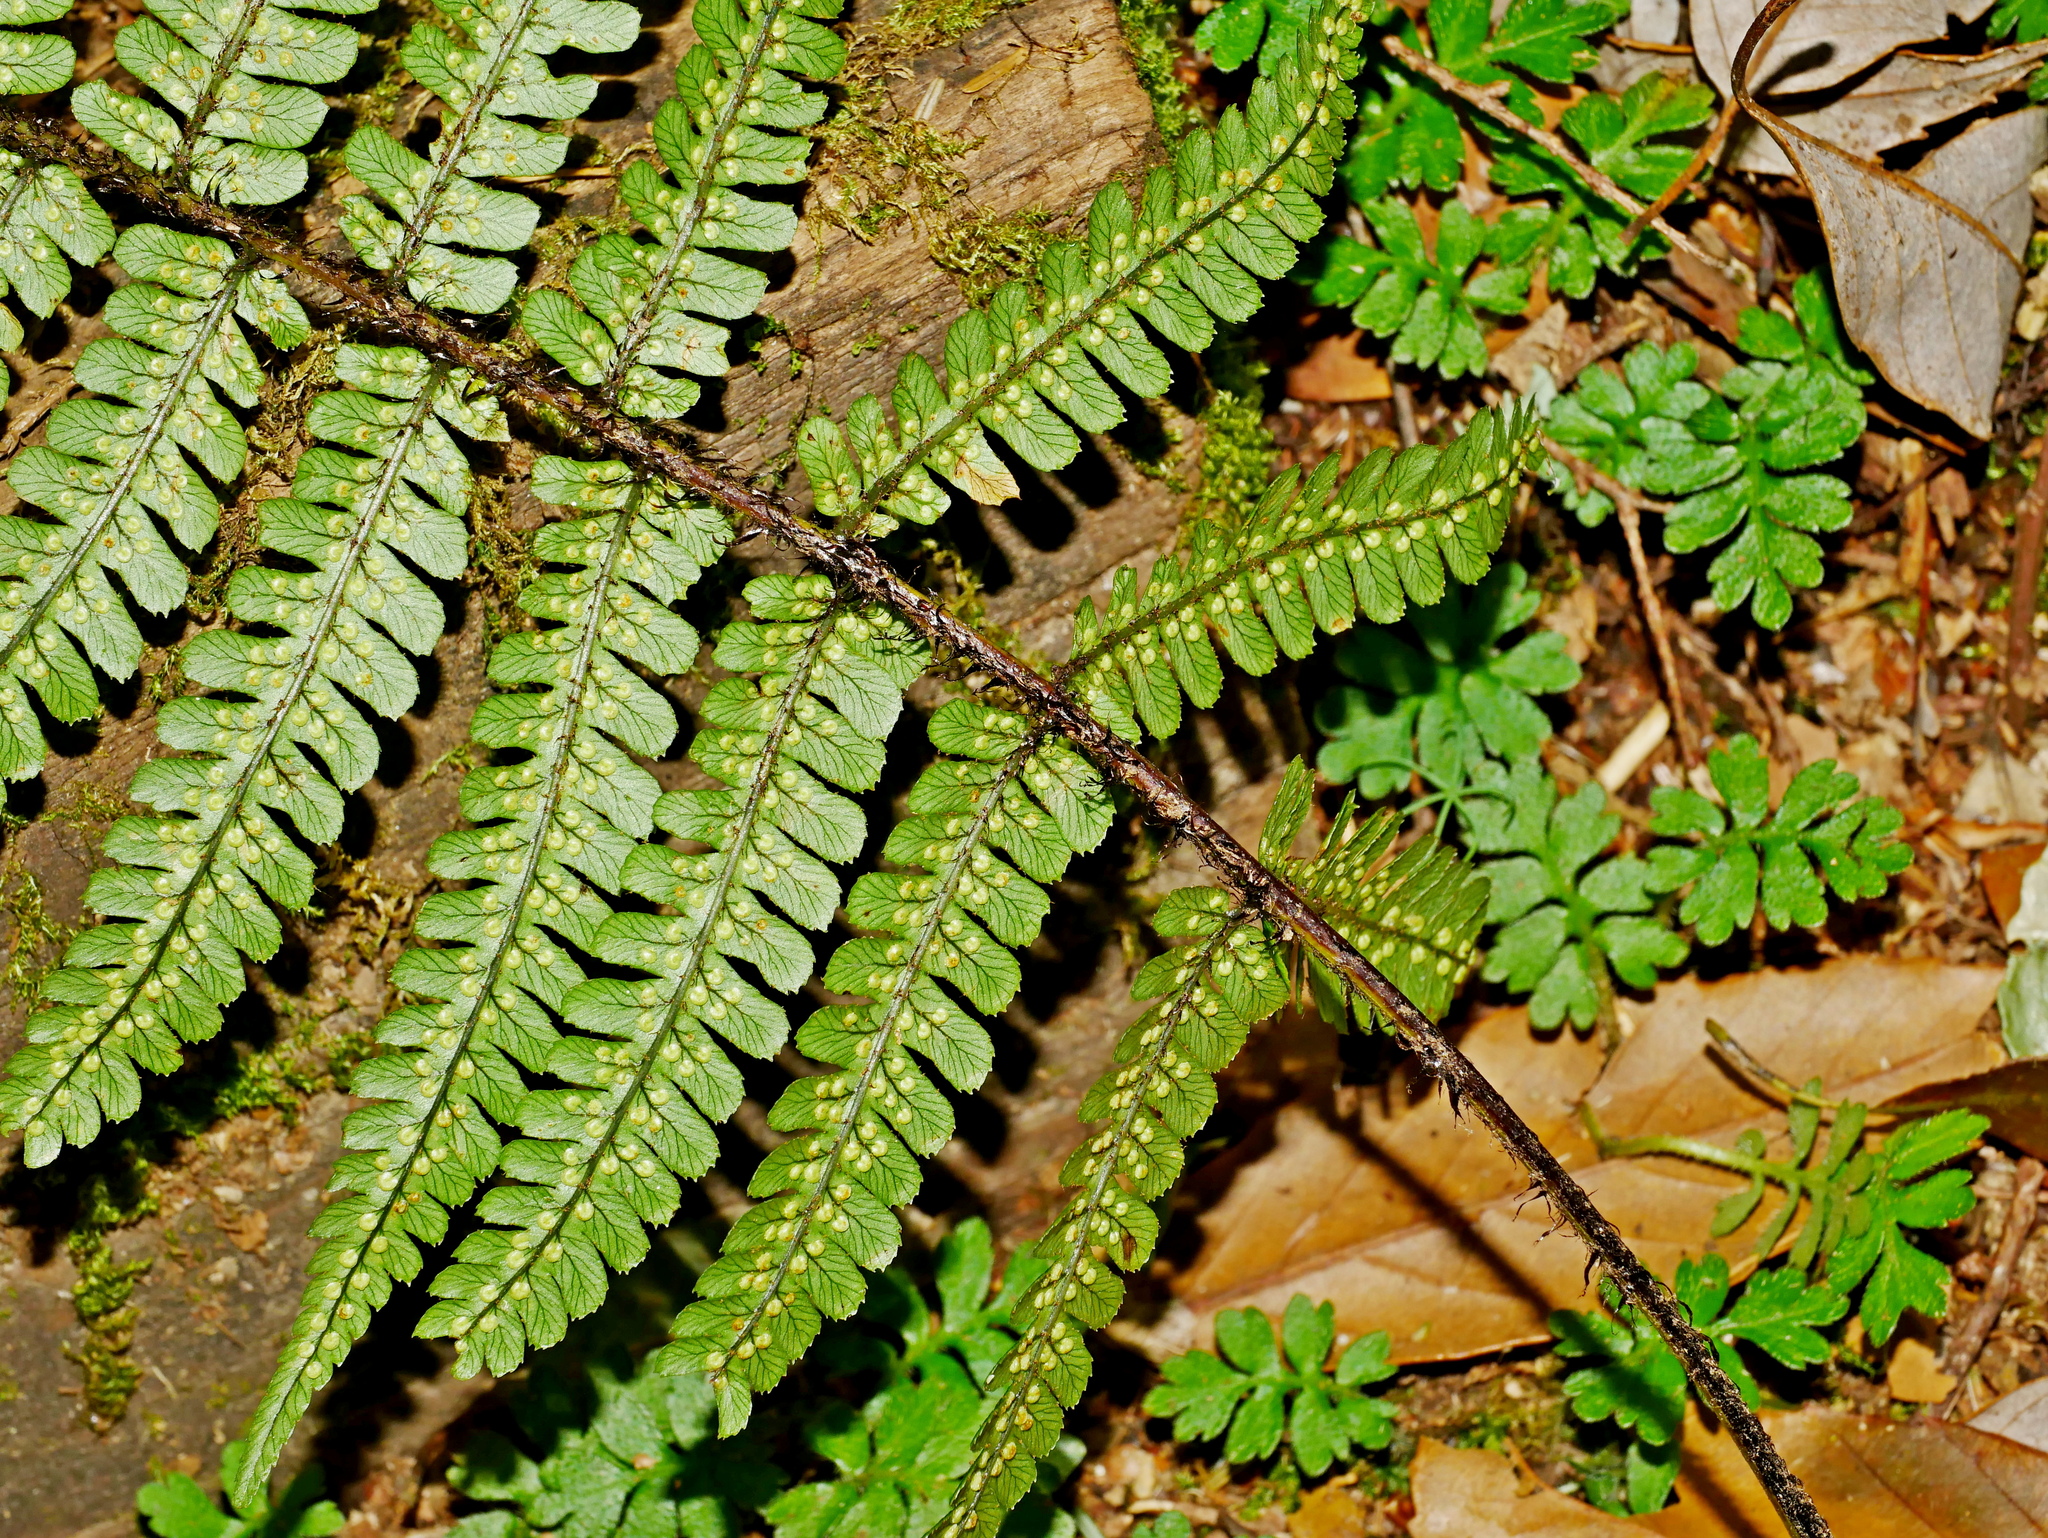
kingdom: Plantae
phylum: Tracheophyta
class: Polypodiopsida
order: Polypodiales
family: Dryopteridaceae
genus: Dryopteris
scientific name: Dryopteris lepidopoda
